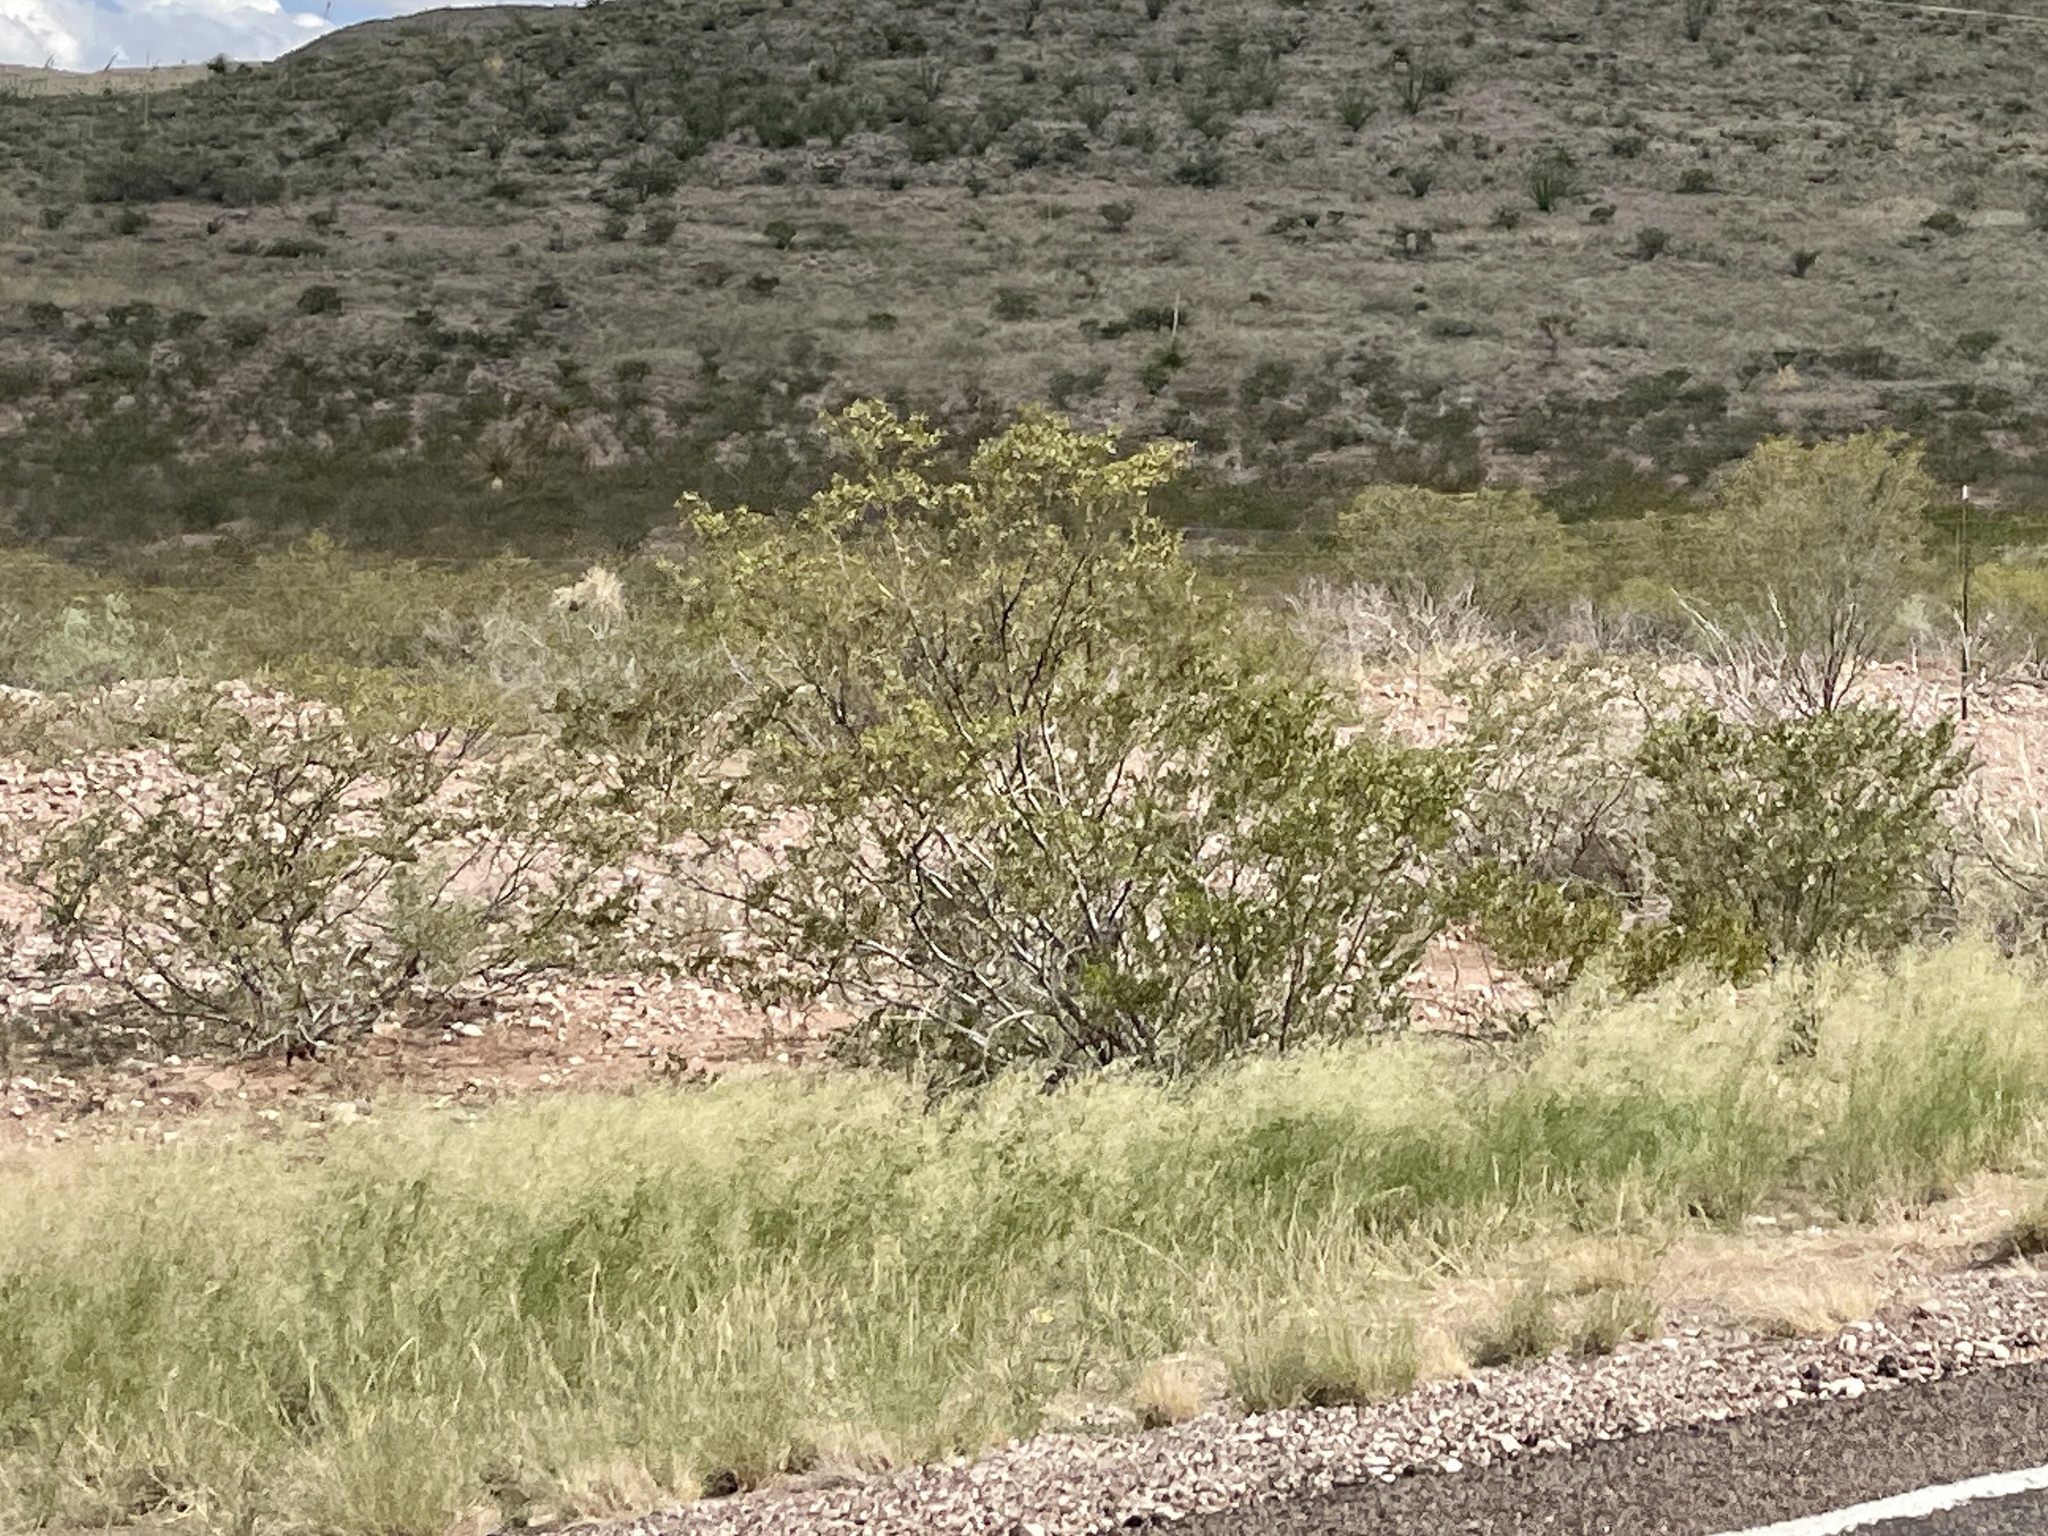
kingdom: Plantae
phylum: Tracheophyta
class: Magnoliopsida
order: Zygophyllales
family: Zygophyllaceae
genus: Larrea
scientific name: Larrea tridentata
